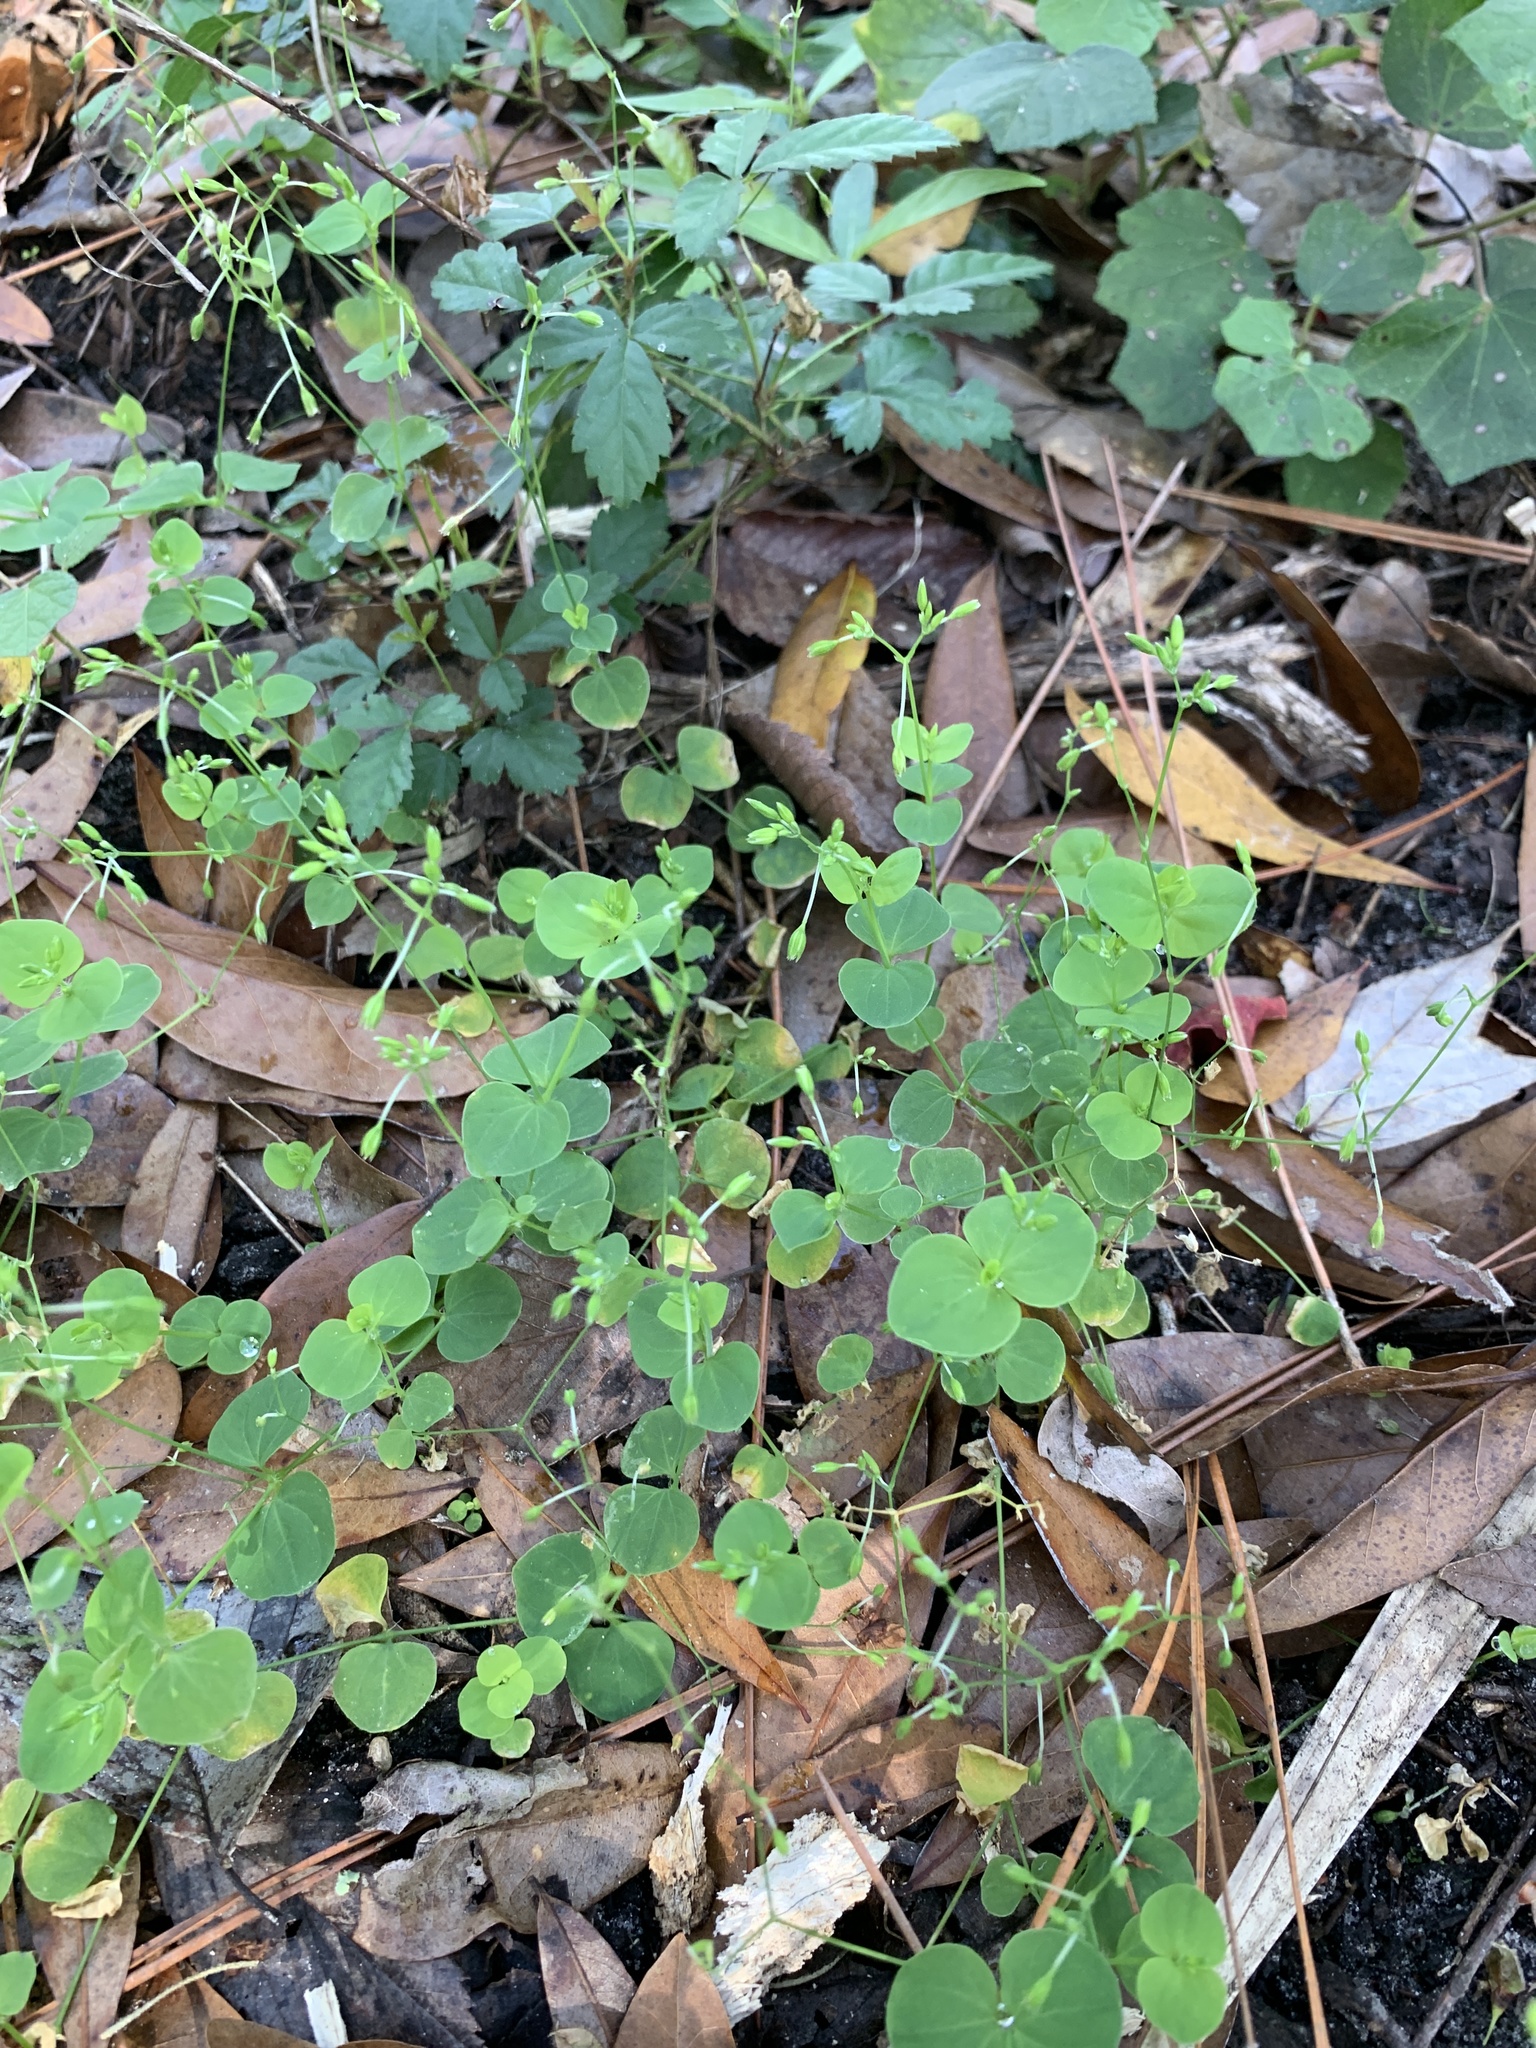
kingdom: Plantae
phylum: Tracheophyta
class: Magnoliopsida
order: Caryophyllales
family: Caryophyllaceae
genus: Drymaria
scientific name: Drymaria cordata
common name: Whitesnow
